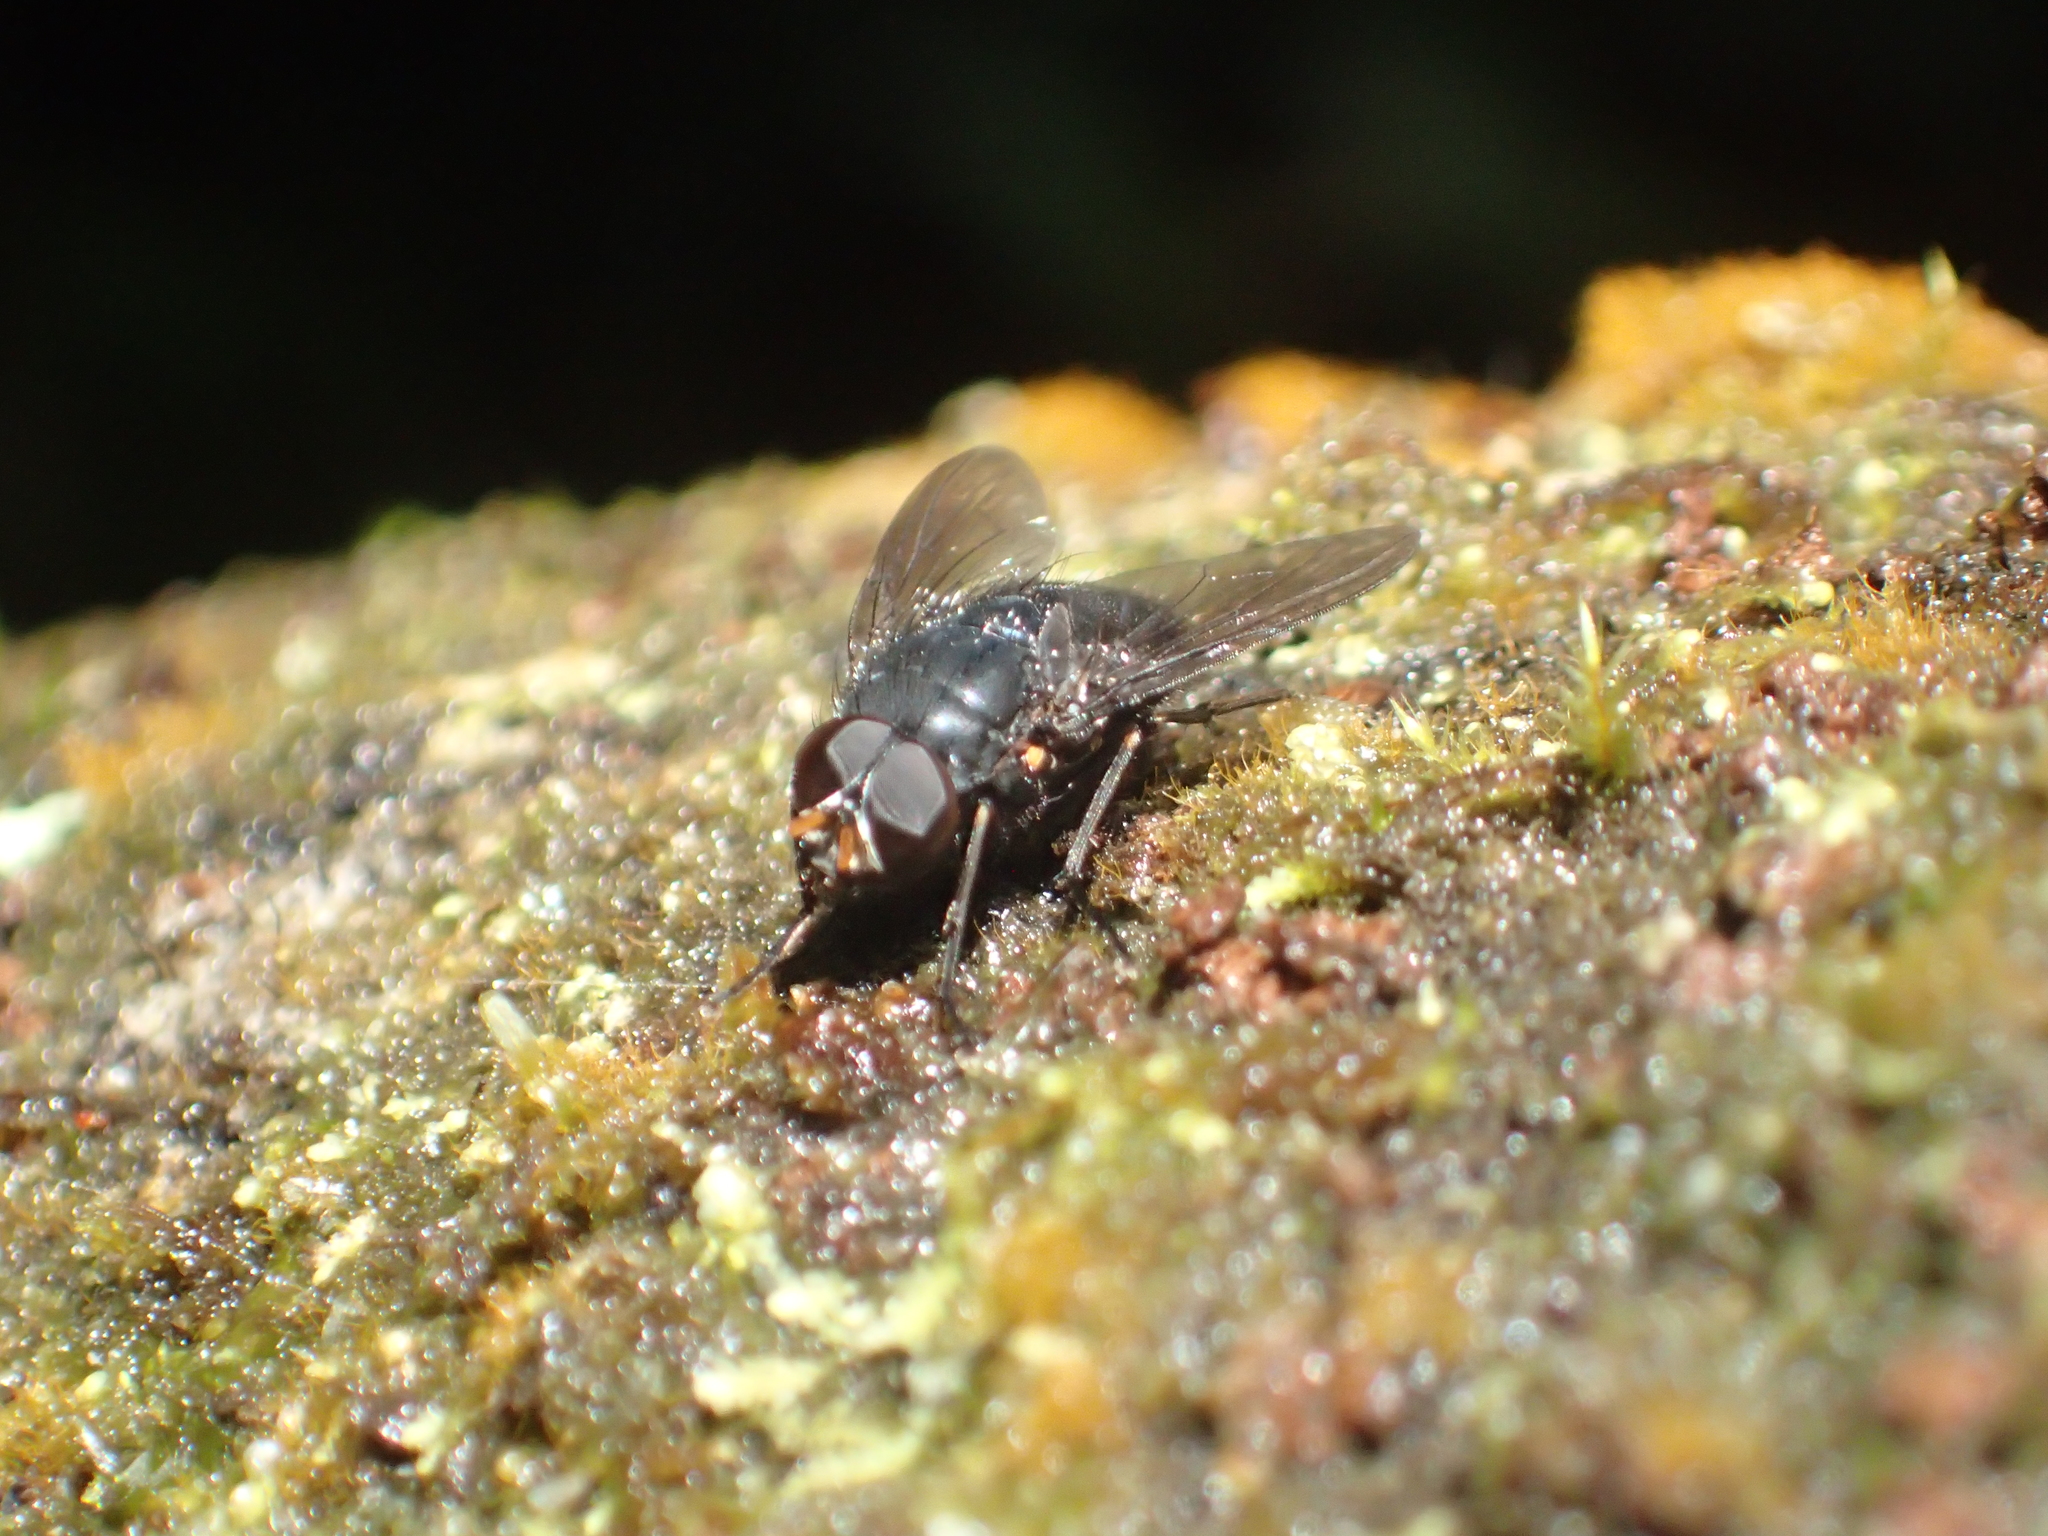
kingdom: Animalia
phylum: Arthropoda
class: Insecta
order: Diptera
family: Muscidae
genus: Calliphoroides
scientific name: Calliphoroides antennatis
